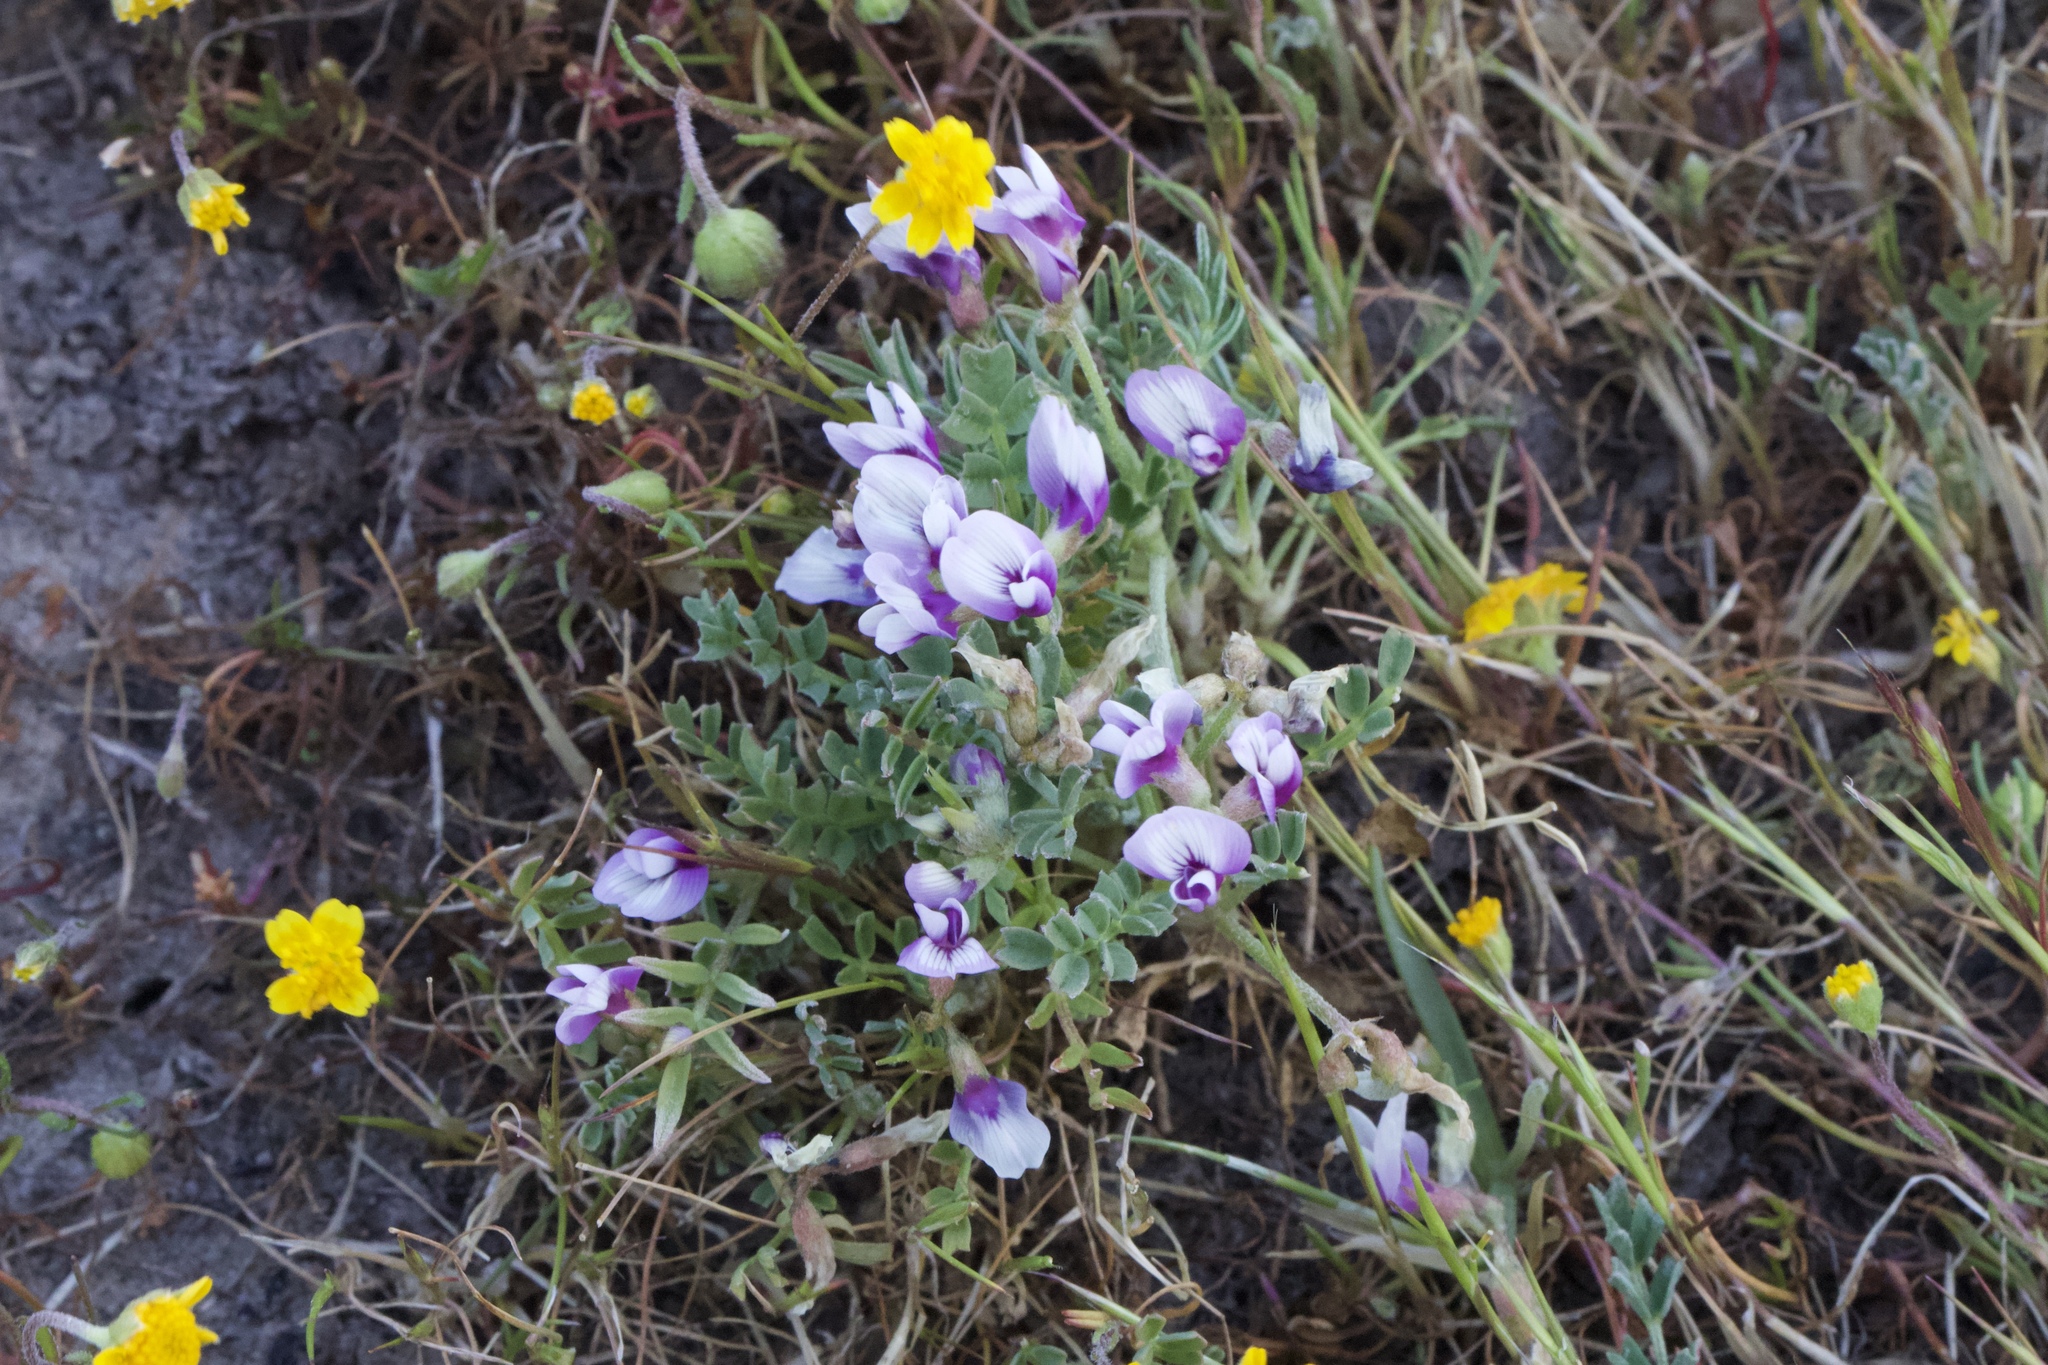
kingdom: Plantae
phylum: Tracheophyta
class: Magnoliopsida
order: Fabales
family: Fabaceae
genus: Astragalus
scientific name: Astragalus tener
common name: Gray slender milkvetch
